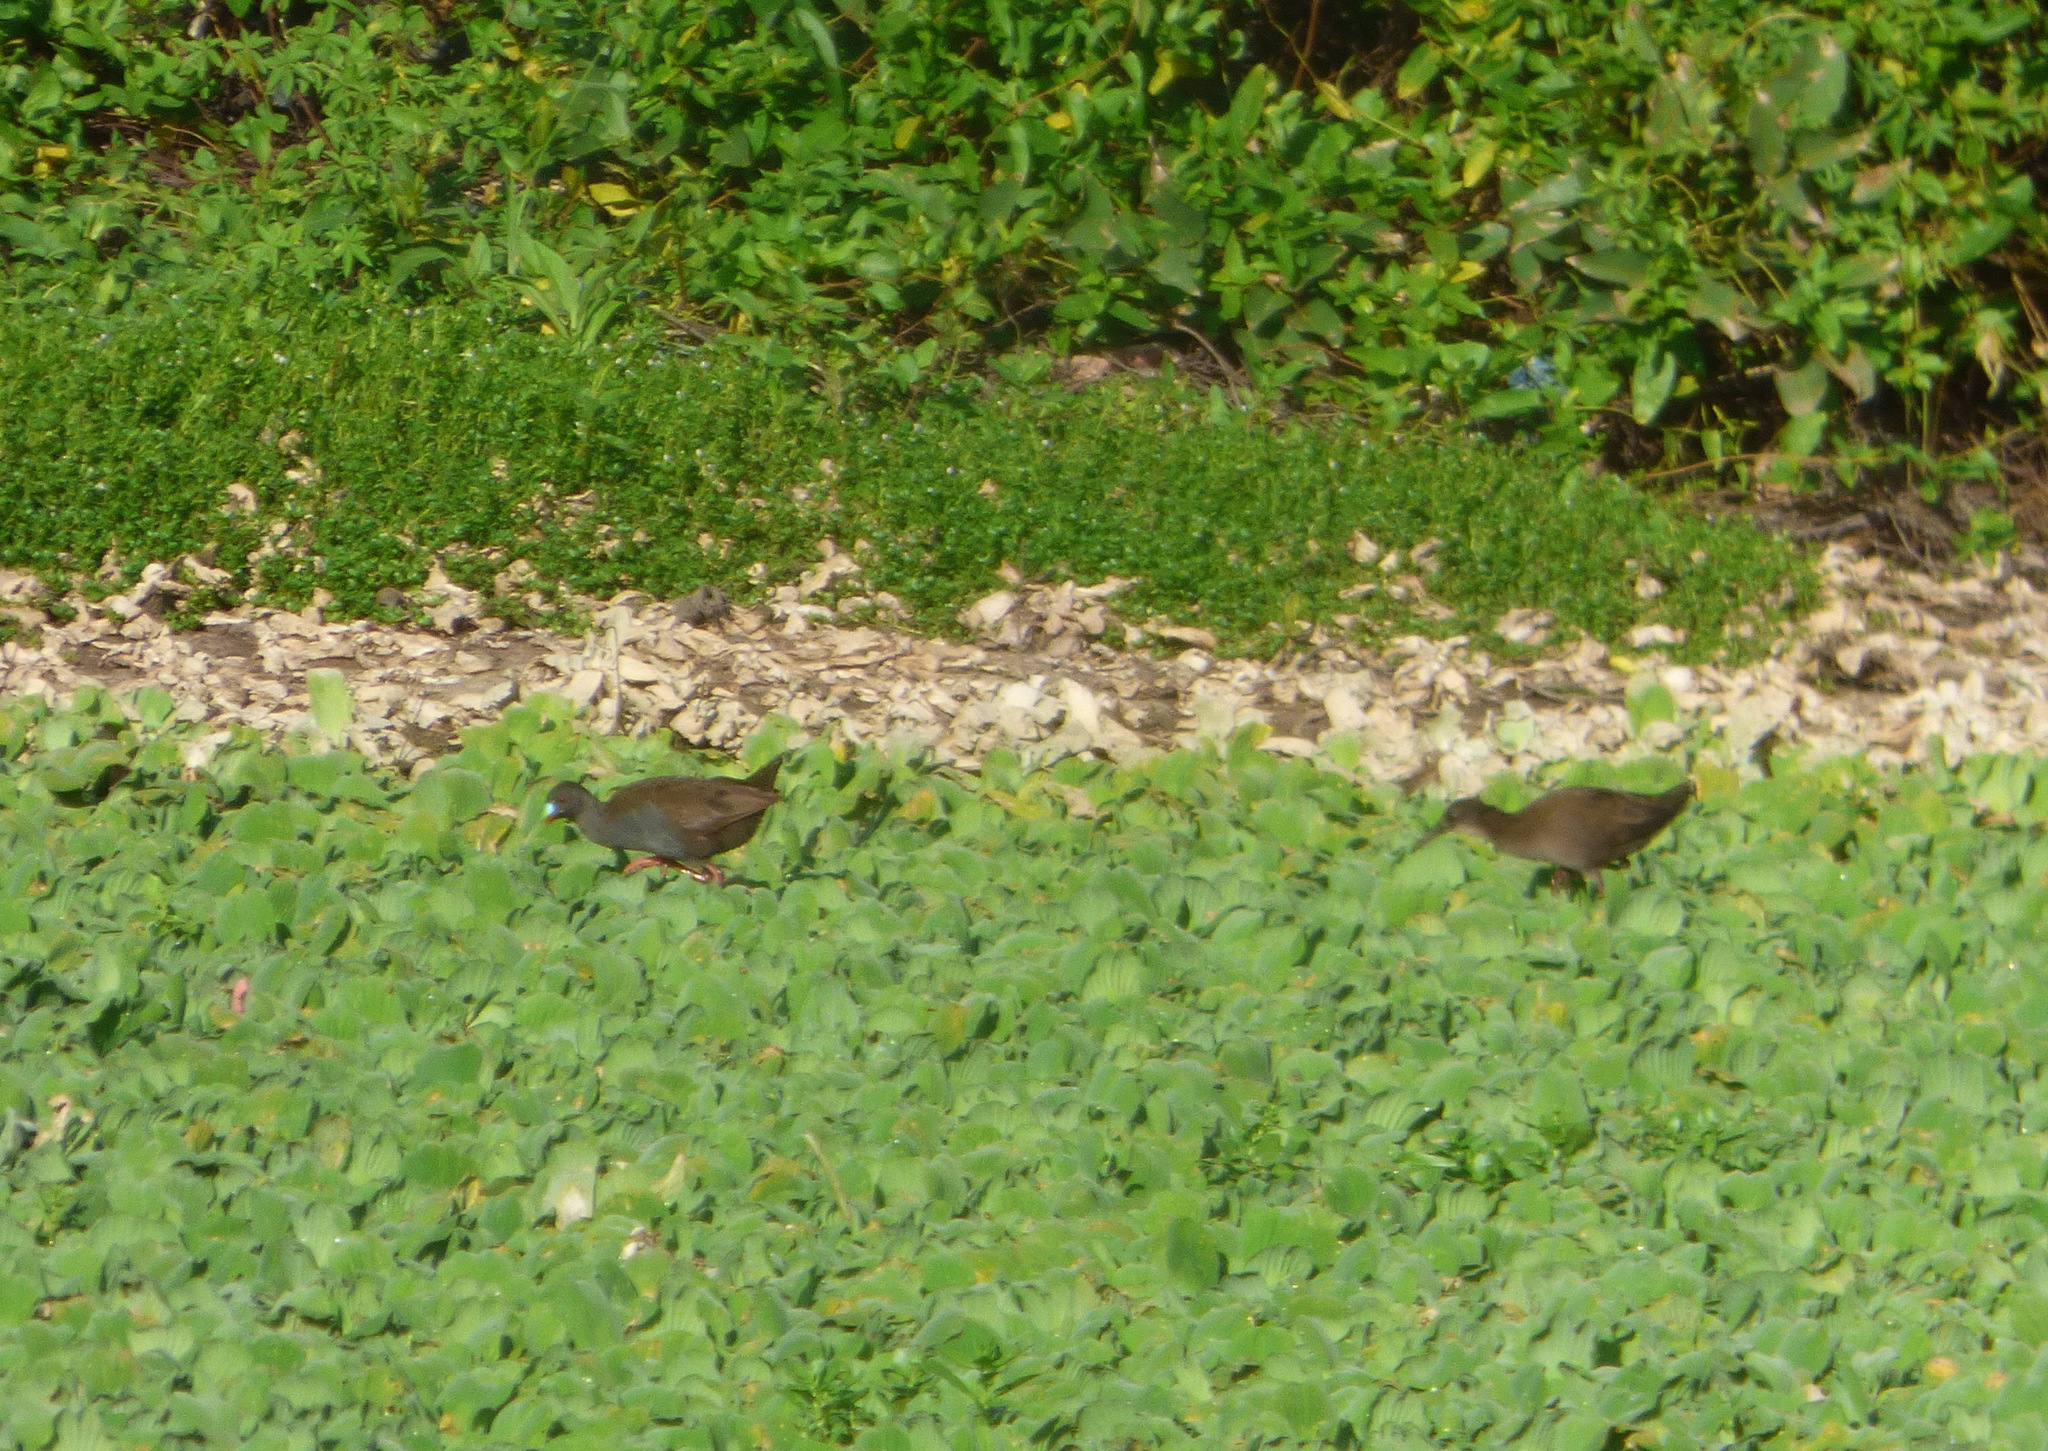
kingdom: Animalia
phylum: Chordata
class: Aves
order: Gruiformes
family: Rallidae
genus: Pardirallus
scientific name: Pardirallus sanguinolentus
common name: Plumbeous rail
